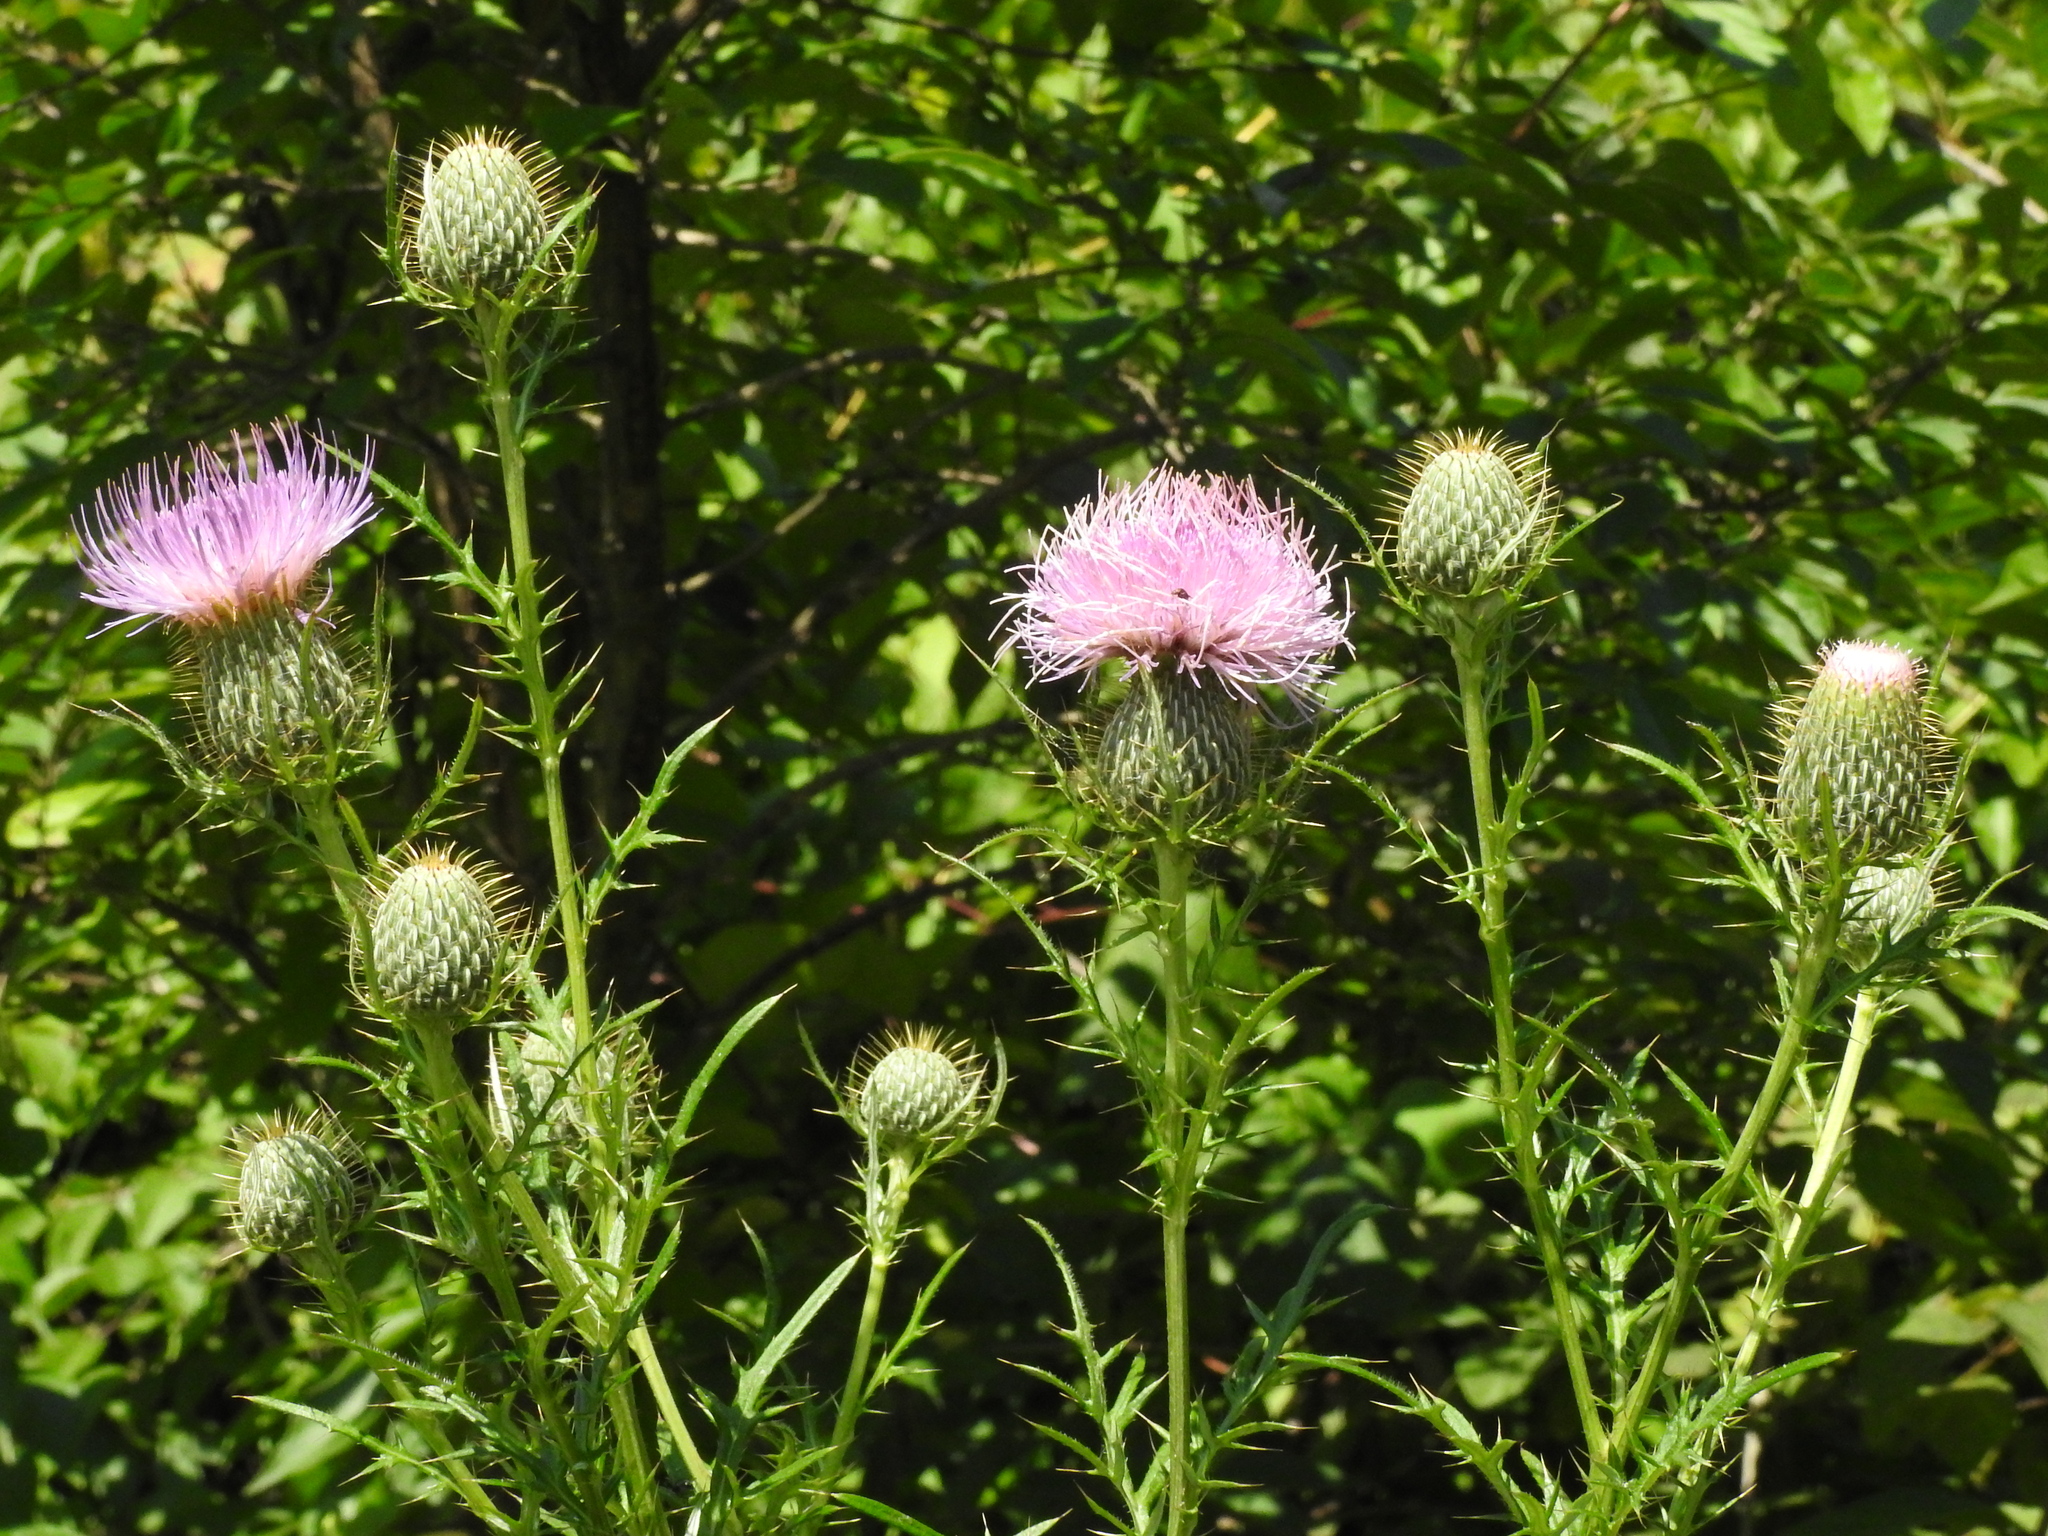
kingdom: Plantae
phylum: Tracheophyta
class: Magnoliopsida
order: Asterales
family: Asteraceae
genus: Cirsium
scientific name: Cirsium discolor
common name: Field thistle
